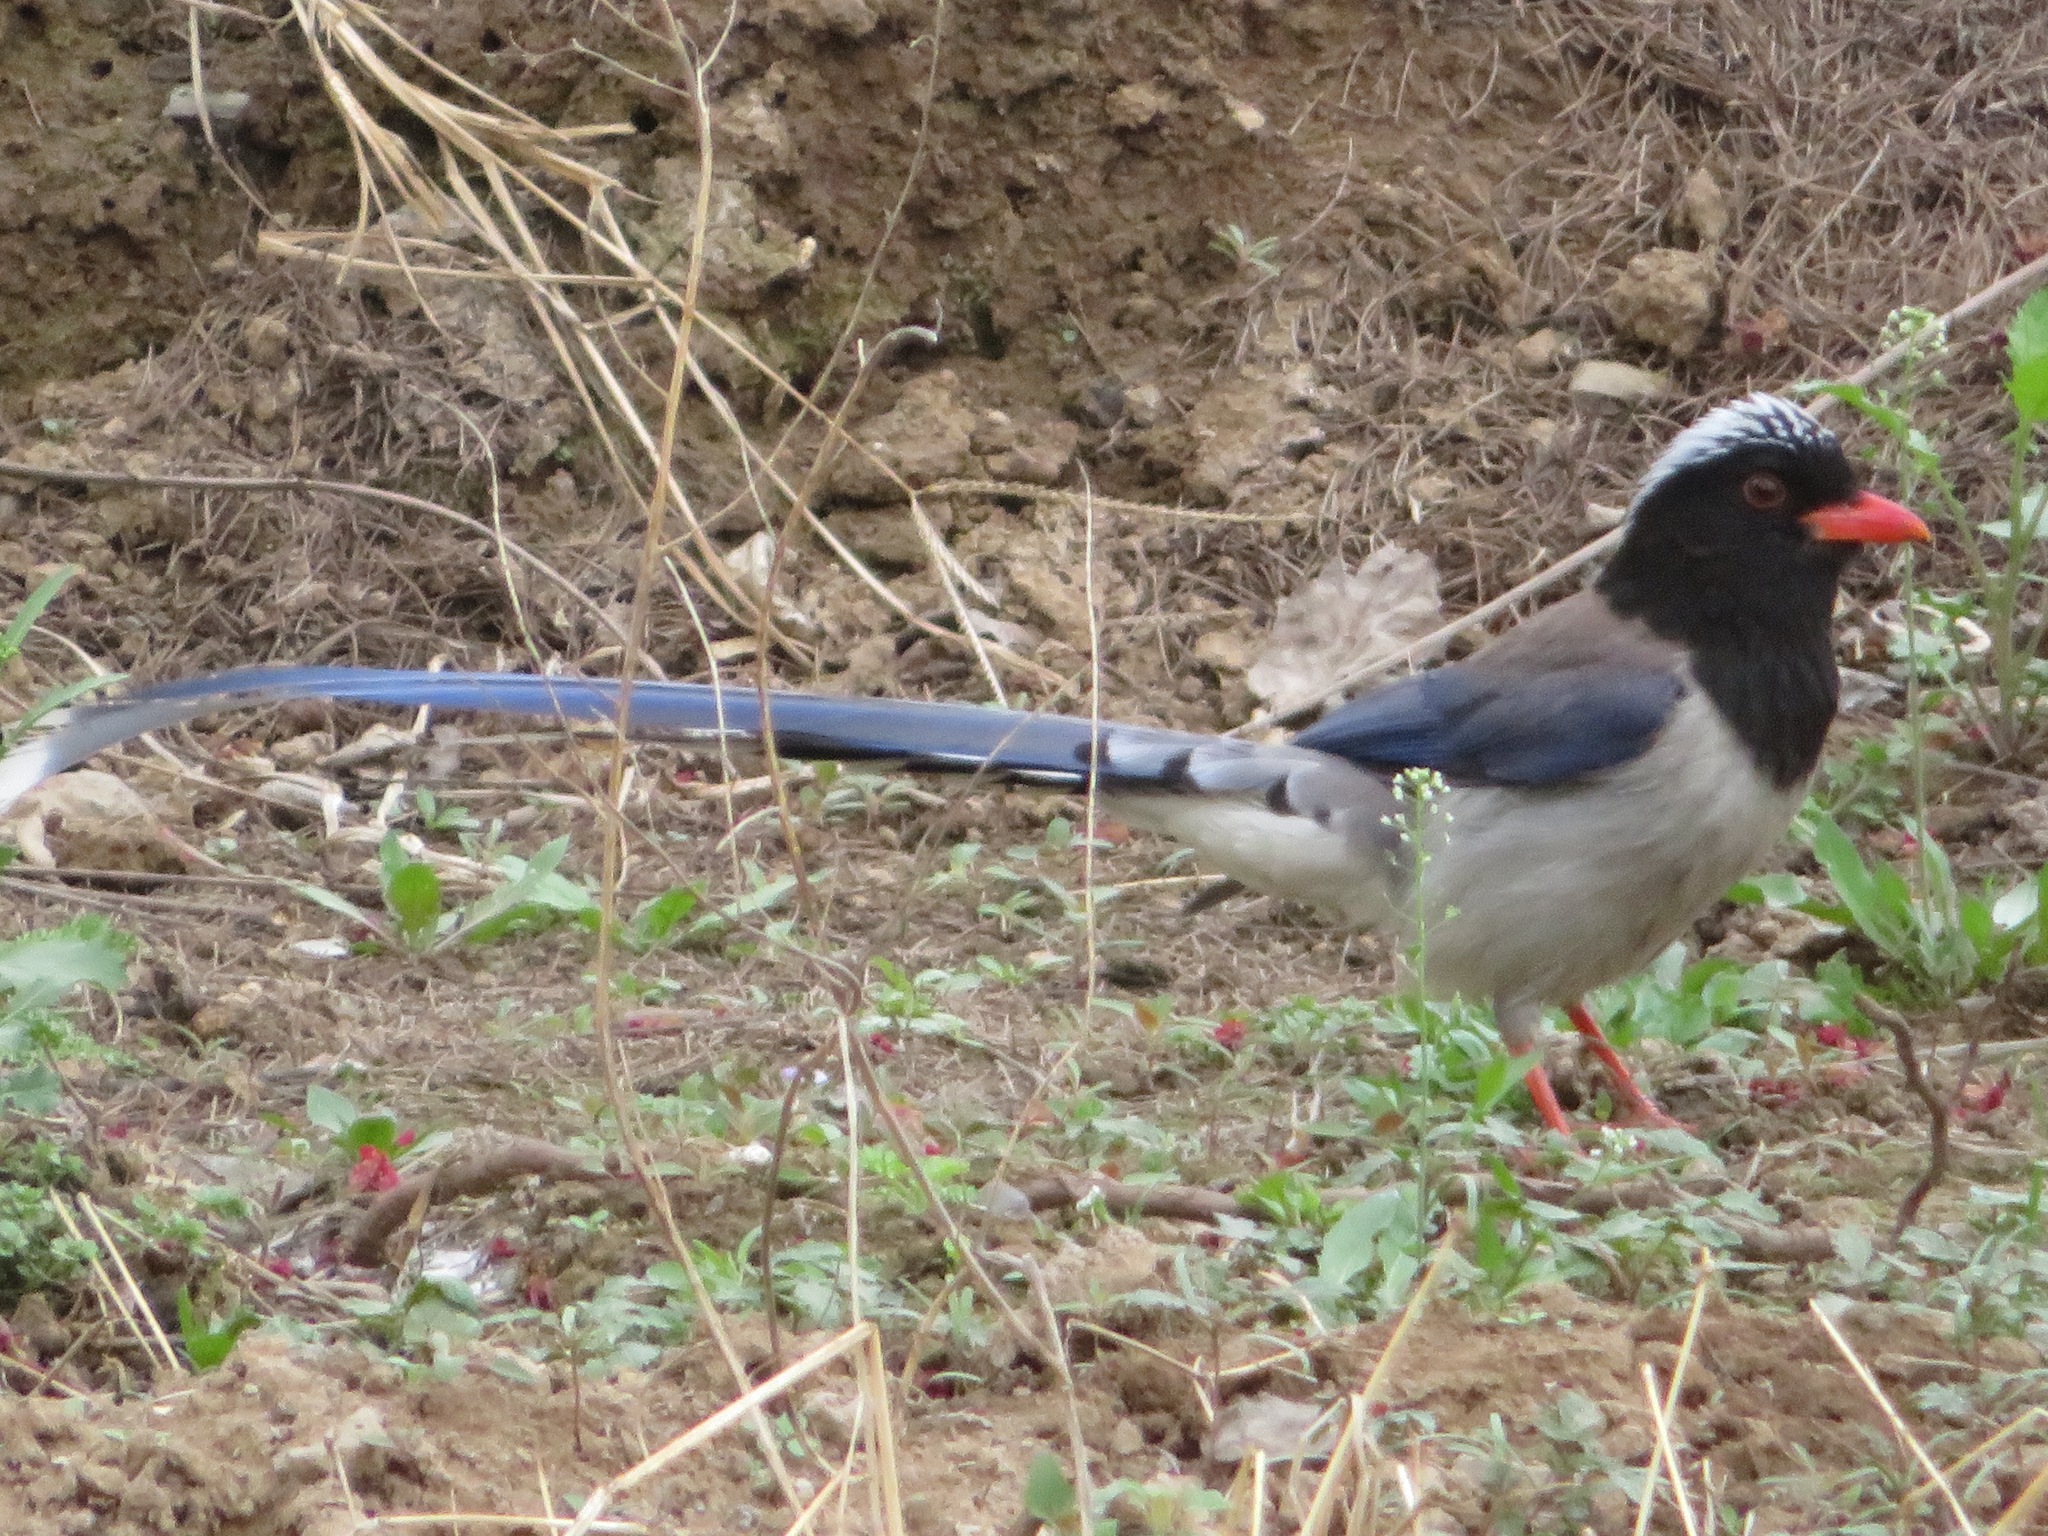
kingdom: Animalia
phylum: Chordata
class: Aves
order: Passeriformes
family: Corvidae
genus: Urocissa
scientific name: Urocissa erythroryncha
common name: Red-billed blue magpie
